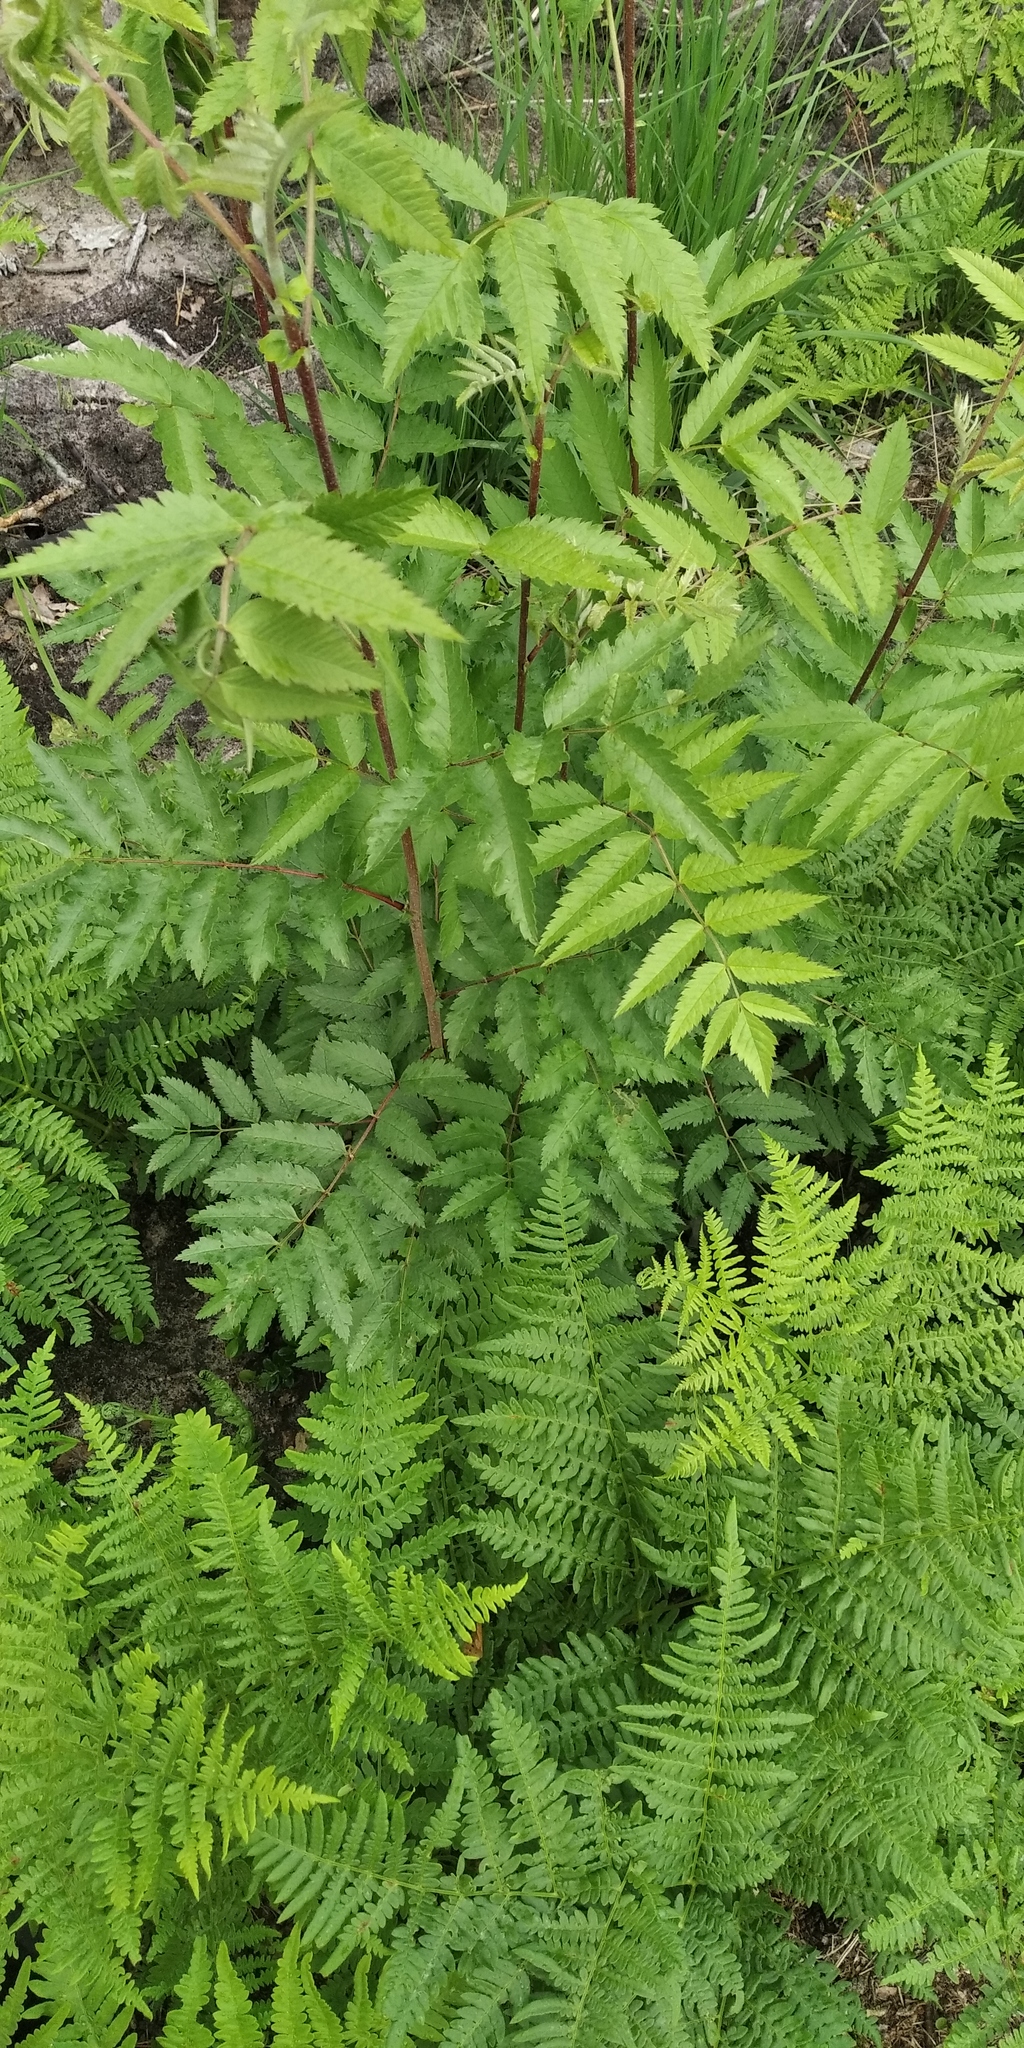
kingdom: Plantae
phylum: Tracheophyta
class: Magnoliopsida
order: Rosales
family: Rosaceae
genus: Sorbus
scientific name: Sorbus aucuparia
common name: Rowan
